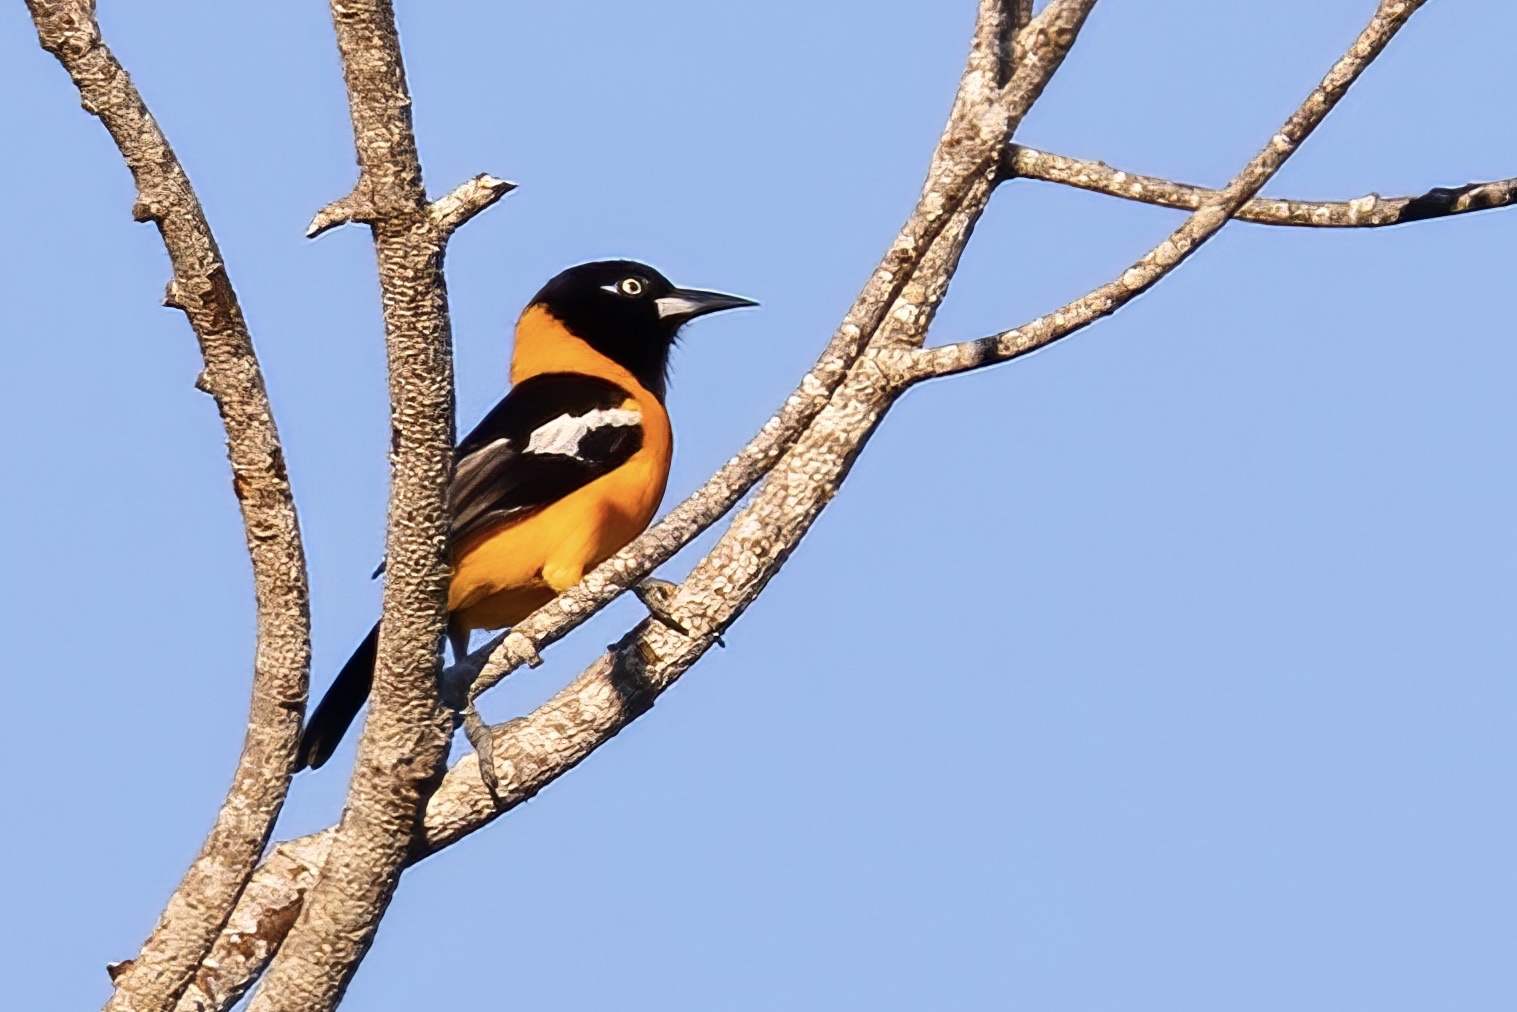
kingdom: Animalia
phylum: Chordata
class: Aves
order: Passeriformes
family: Icteridae
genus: Icterus
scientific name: Icterus icterus
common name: Venezuelan troupial
